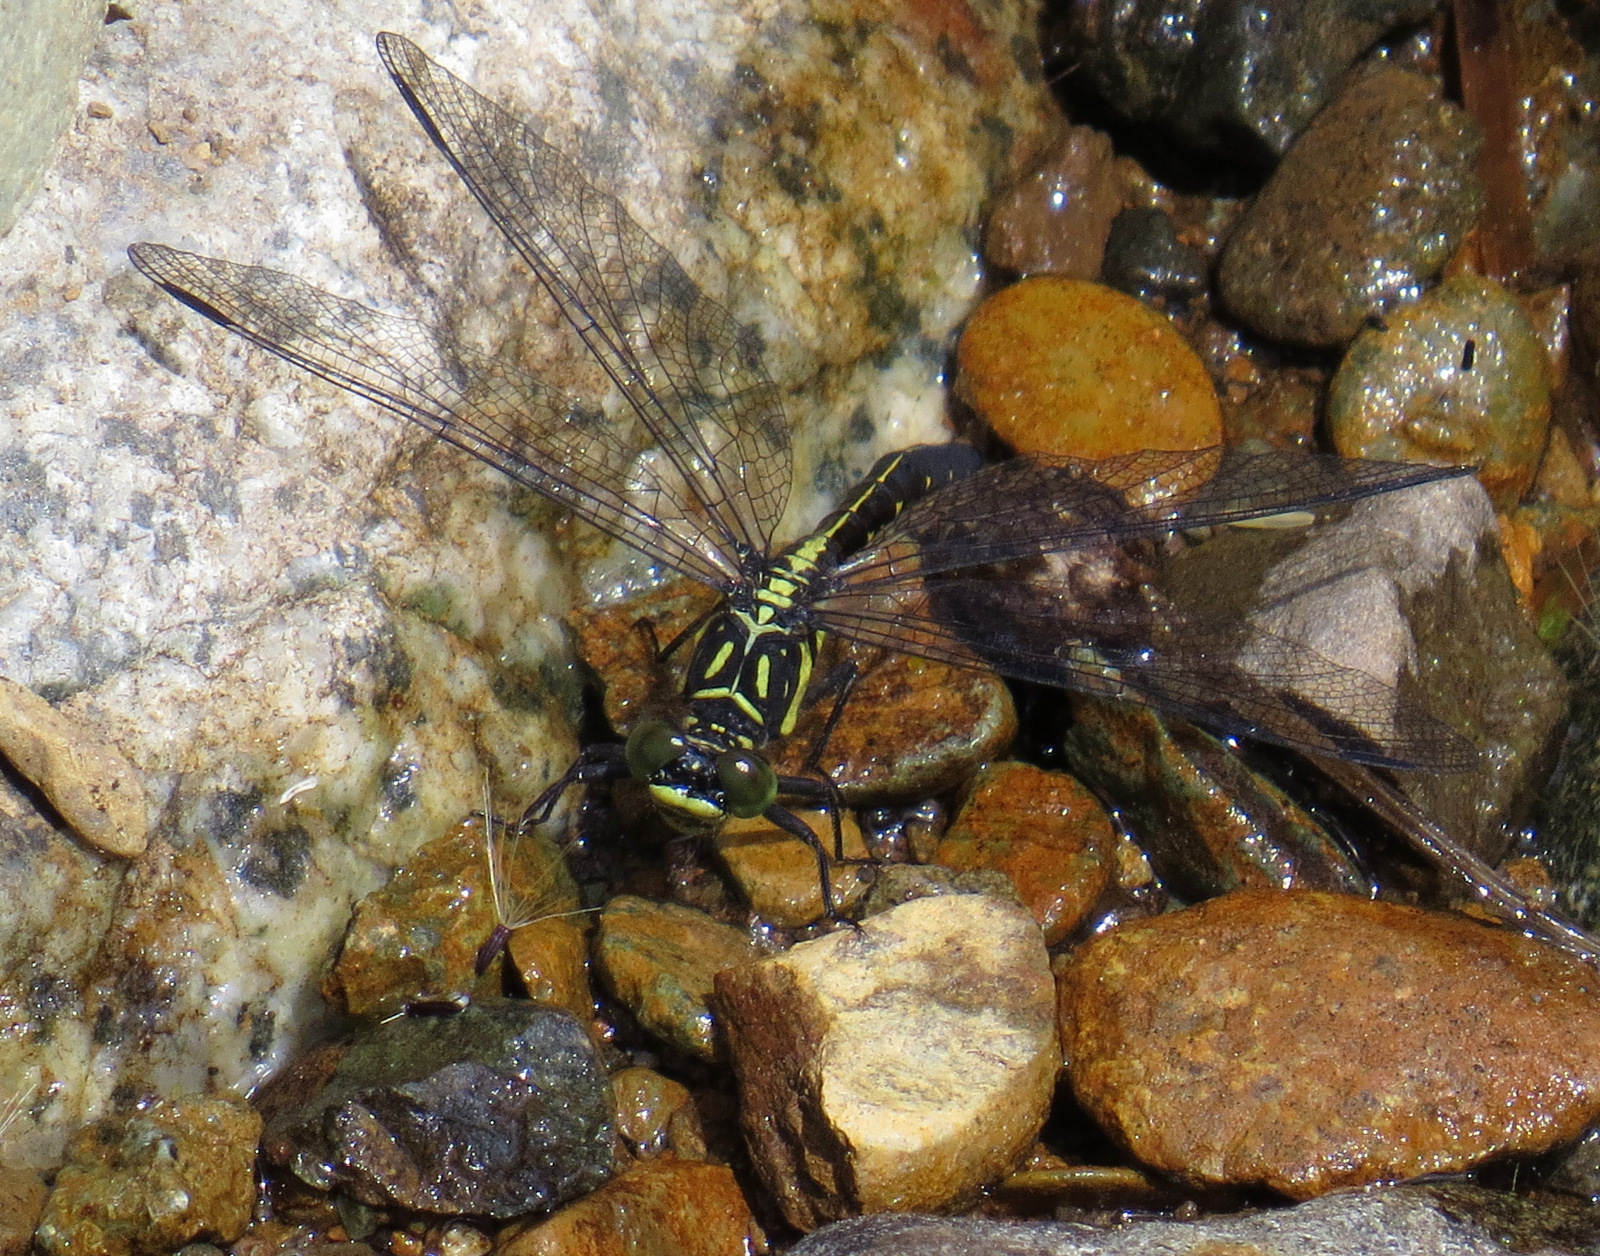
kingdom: Animalia
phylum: Arthropoda
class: Insecta
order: Odonata
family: Gomphidae
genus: Lanthus
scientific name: Lanthus parvulus
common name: Northern pygmy clubtail
